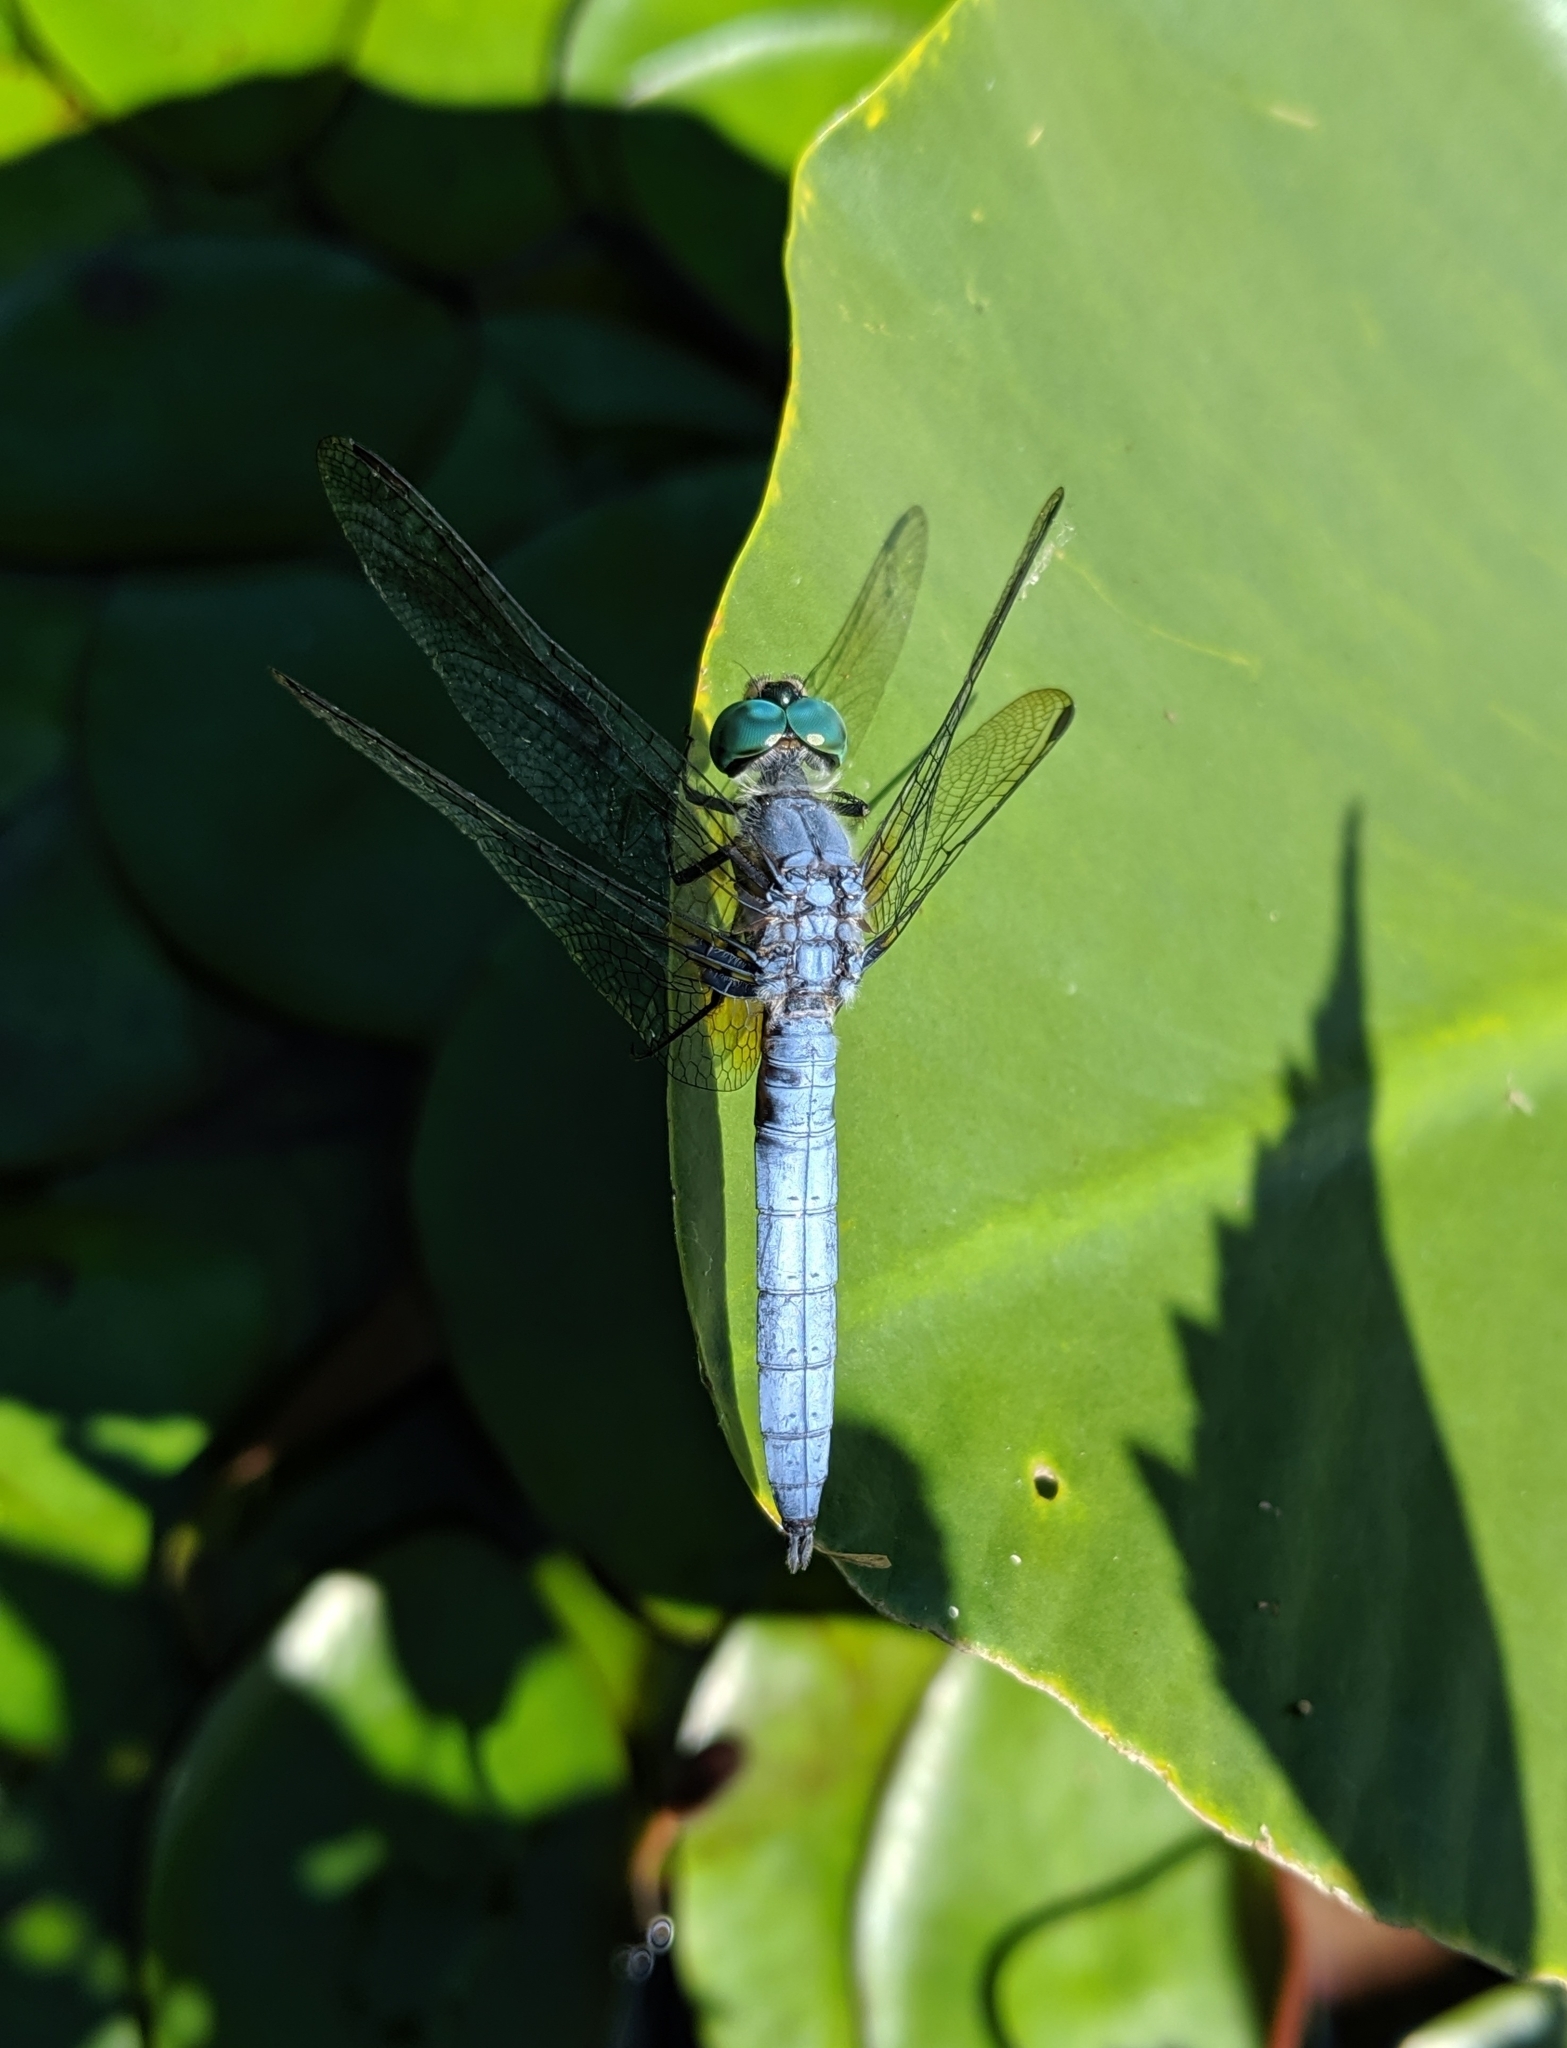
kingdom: Animalia
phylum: Arthropoda
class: Insecta
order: Odonata
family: Libellulidae
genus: Pachydiplax
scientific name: Pachydiplax longipennis
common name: Blue dasher
